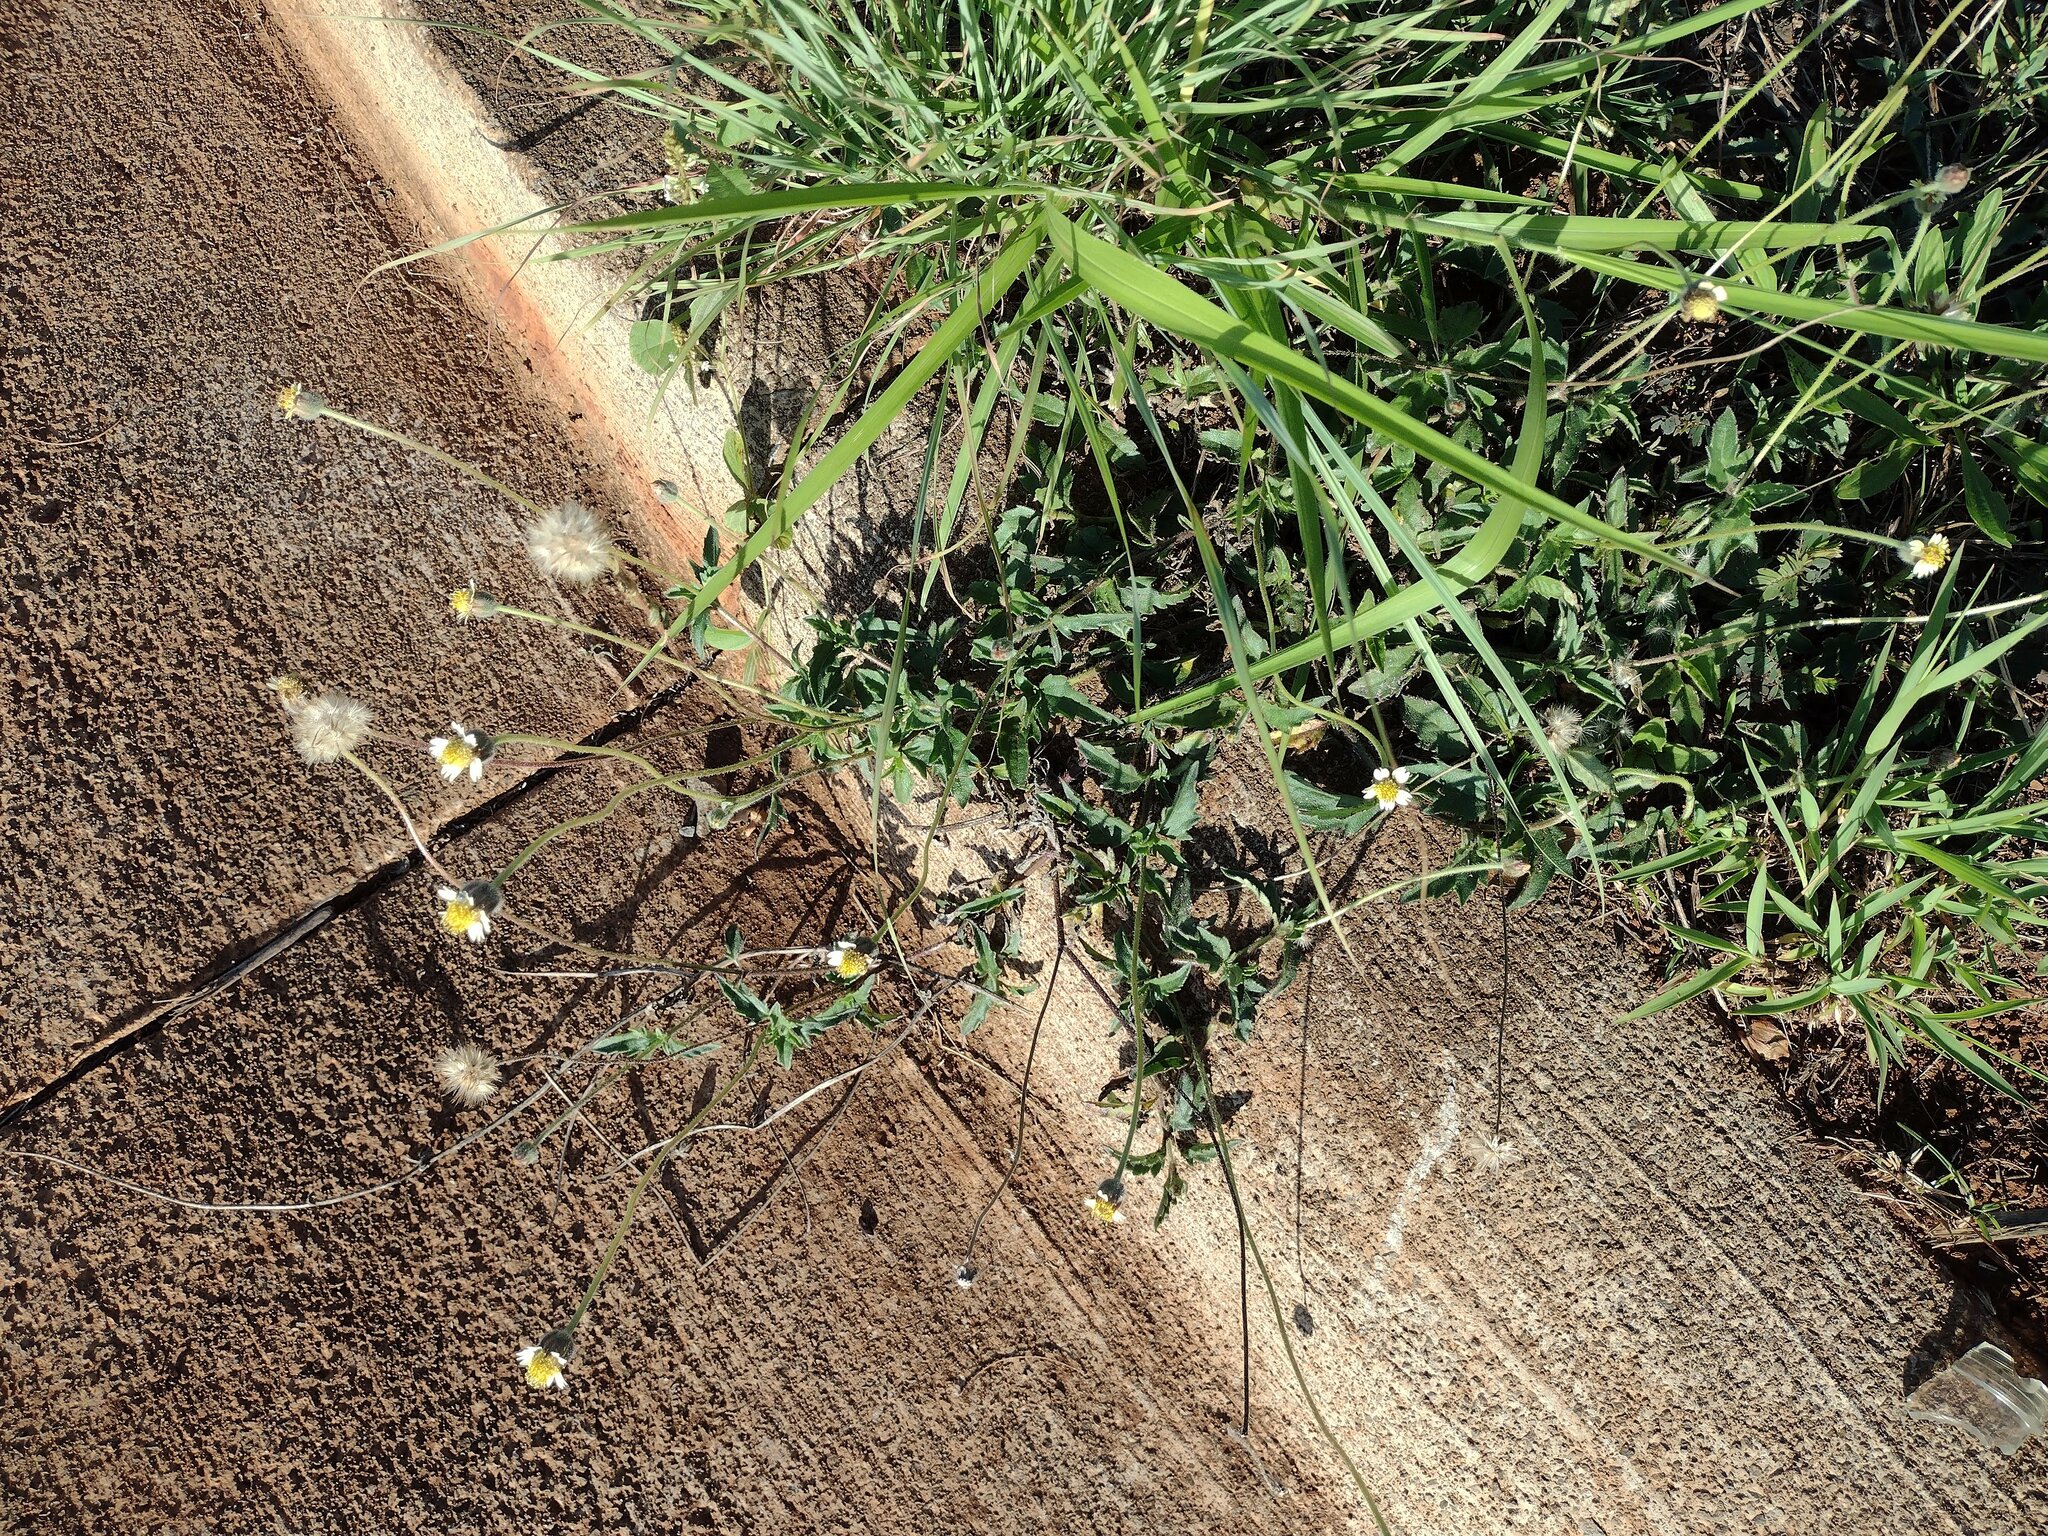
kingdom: Plantae
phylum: Tracheophyta
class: Magnoliopsida
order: Asterales
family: Asteraceae
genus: Tridax
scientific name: Tridax procumbens
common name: Coatbuttons
